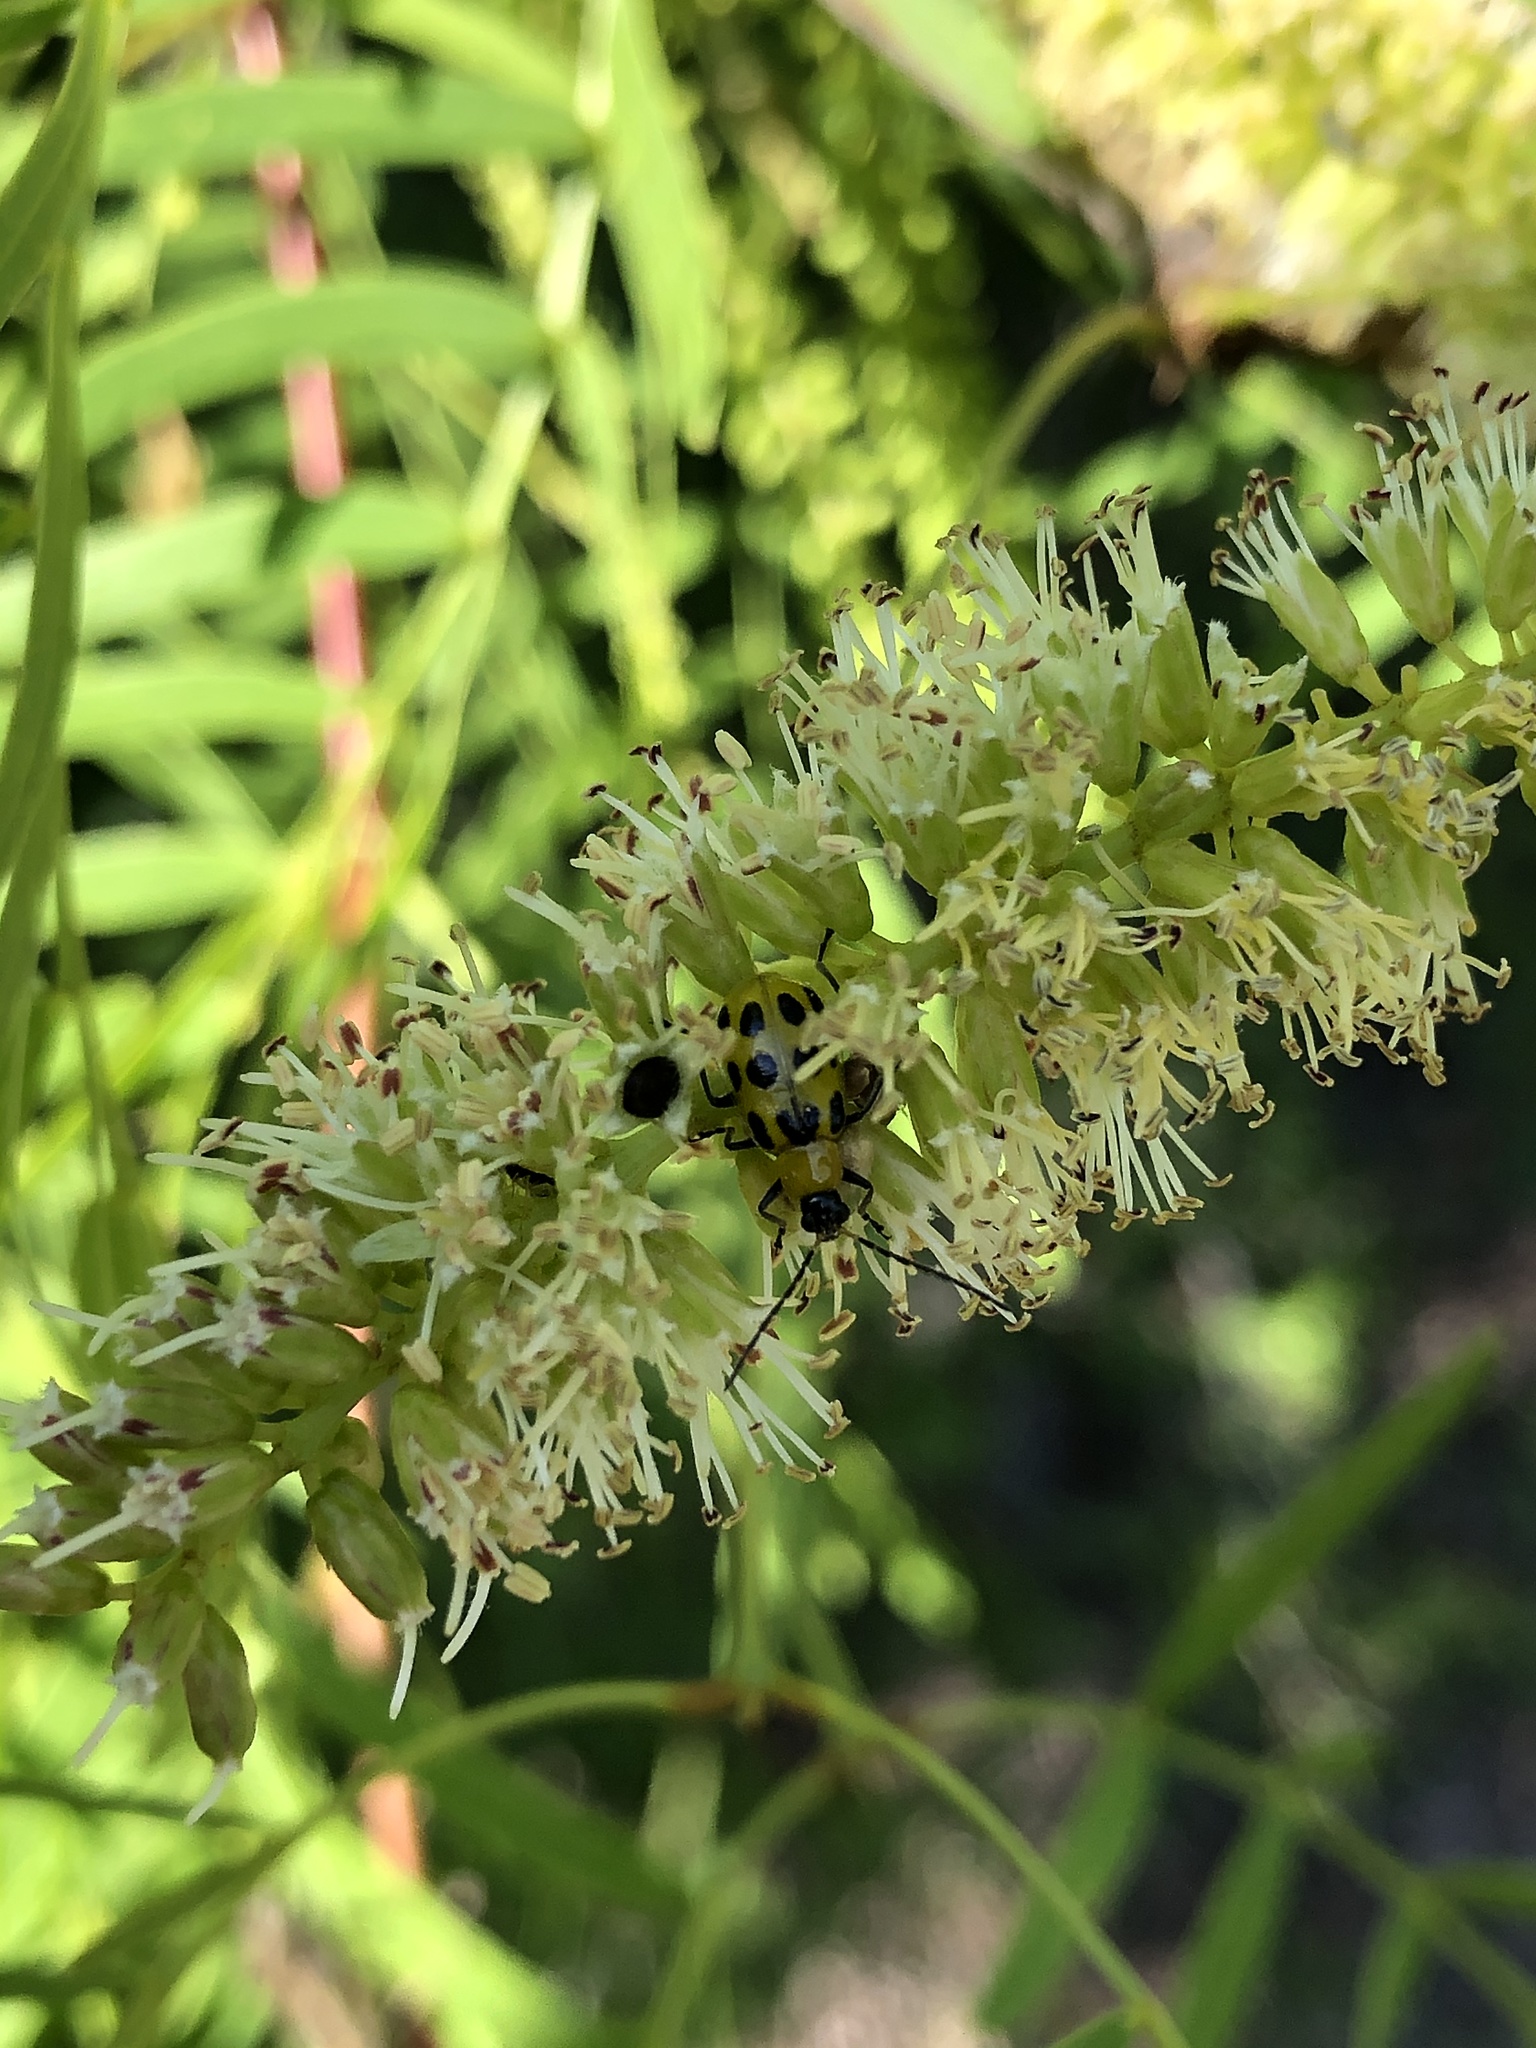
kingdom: Animalia
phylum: Arthropoda
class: Insecta
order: Coleoptera
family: Chrysomelidae
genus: Diabrotica
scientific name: Diabrotica undecimpunctata
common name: Spotted cucumber beetle
